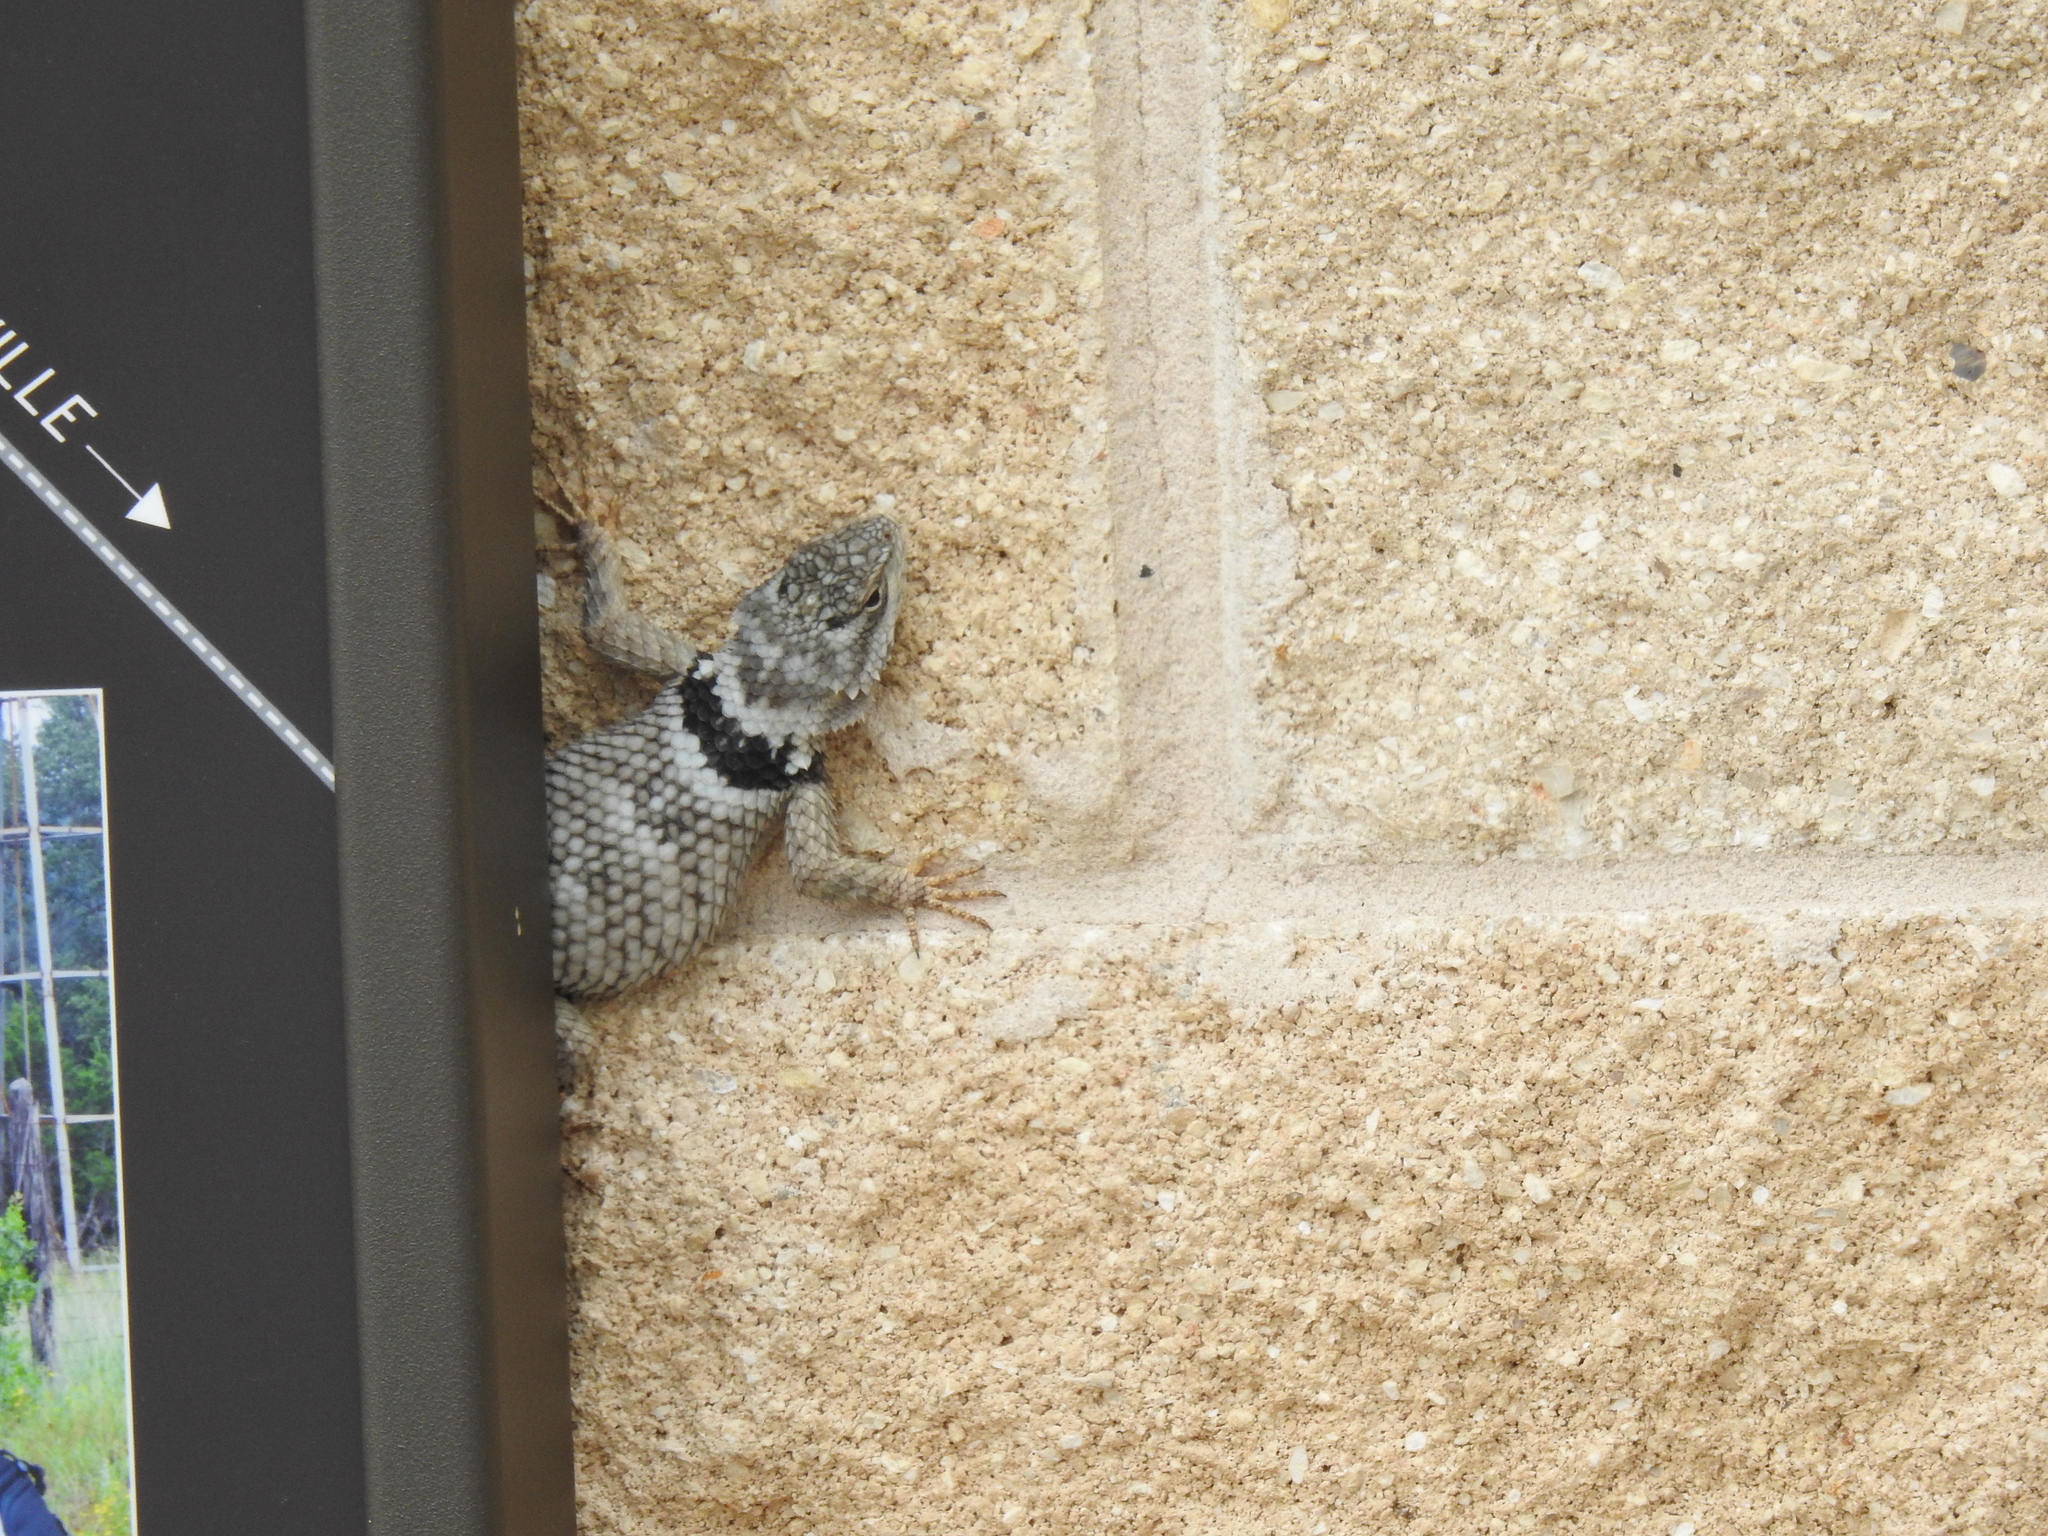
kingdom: Animalia
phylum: Chordata
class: Squamata
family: Phrynosomatidae
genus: Sceloporus
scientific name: Sceloporus poinsettii
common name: Crevice spiny lizard
